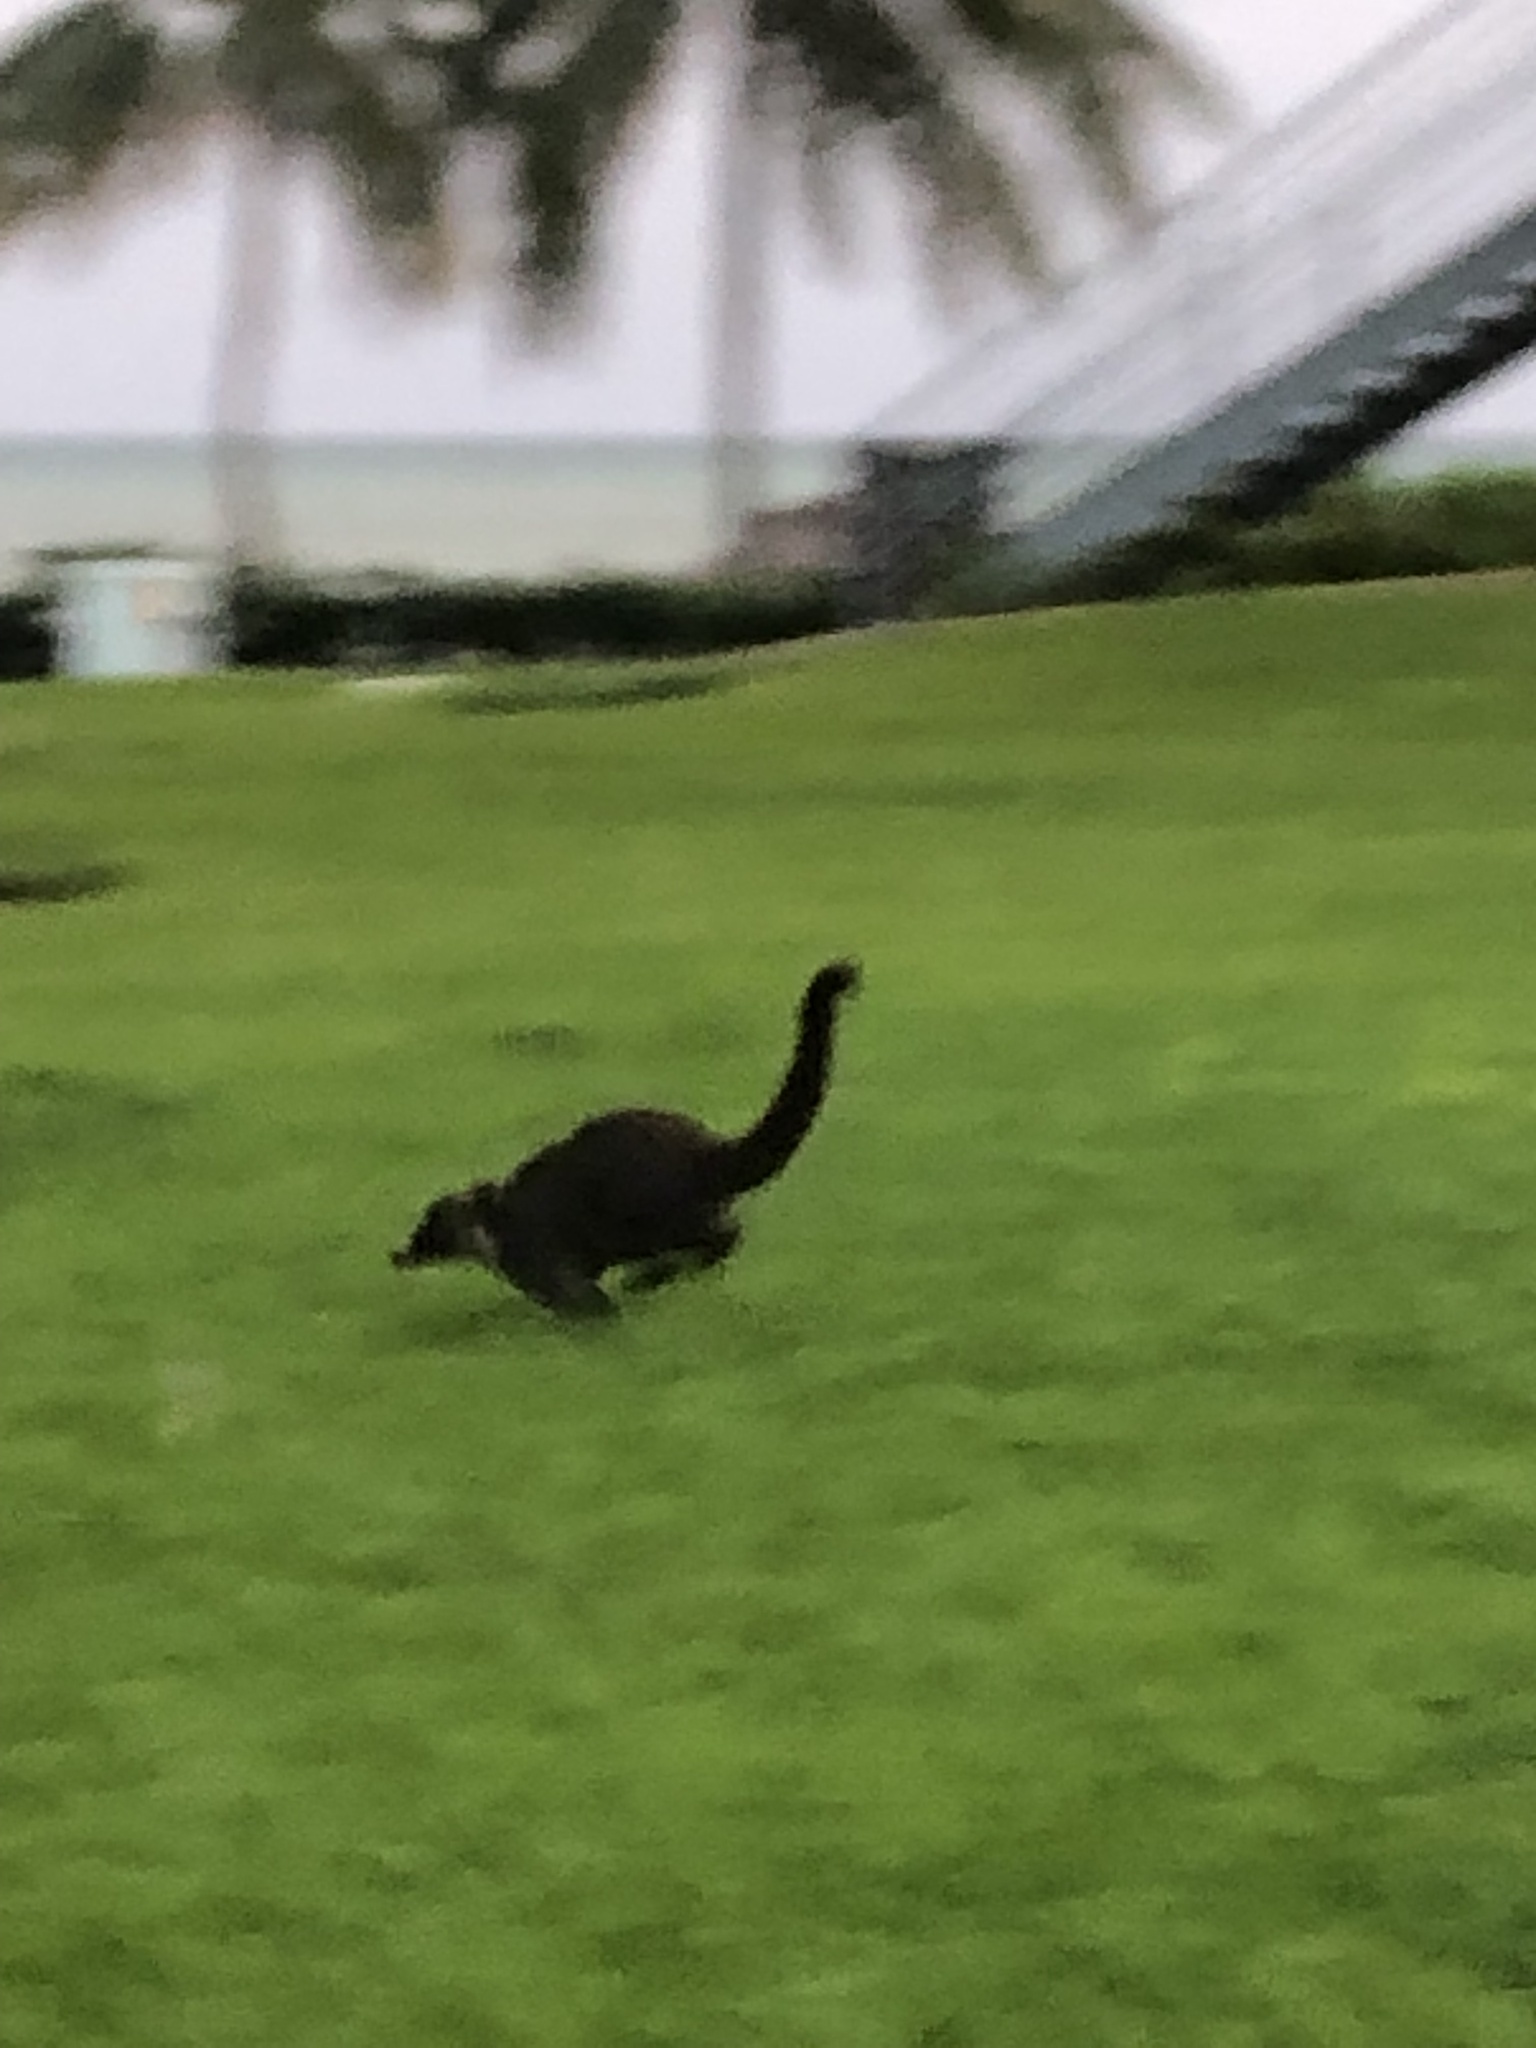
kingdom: Animalia
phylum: Chordata
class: Mammalia
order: Carnivora
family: Procyonidae
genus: Nasua
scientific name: Nasua narica
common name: White-nosed coati
